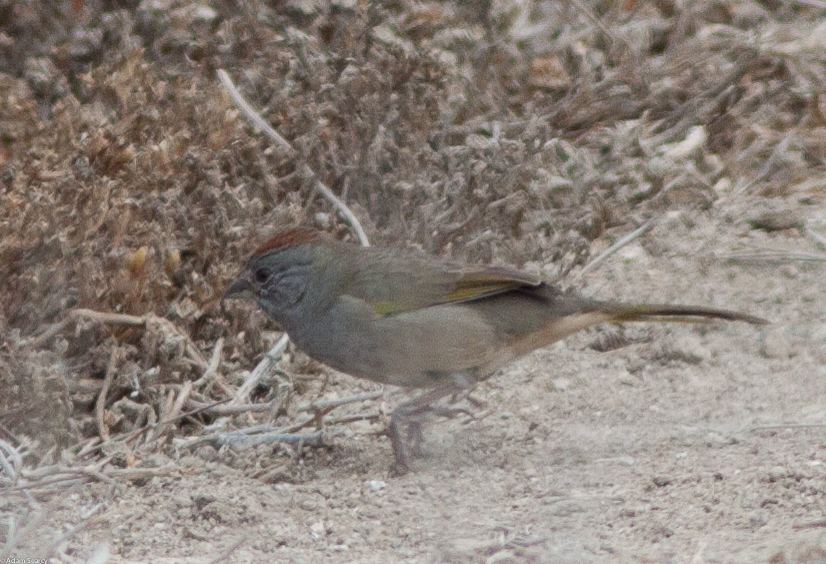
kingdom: Animalia
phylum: Chordata
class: Aves
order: Passeriformes
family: Passerellidae
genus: Pipilo
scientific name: Pipilo chlorurus
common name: Green-tailed towhee
